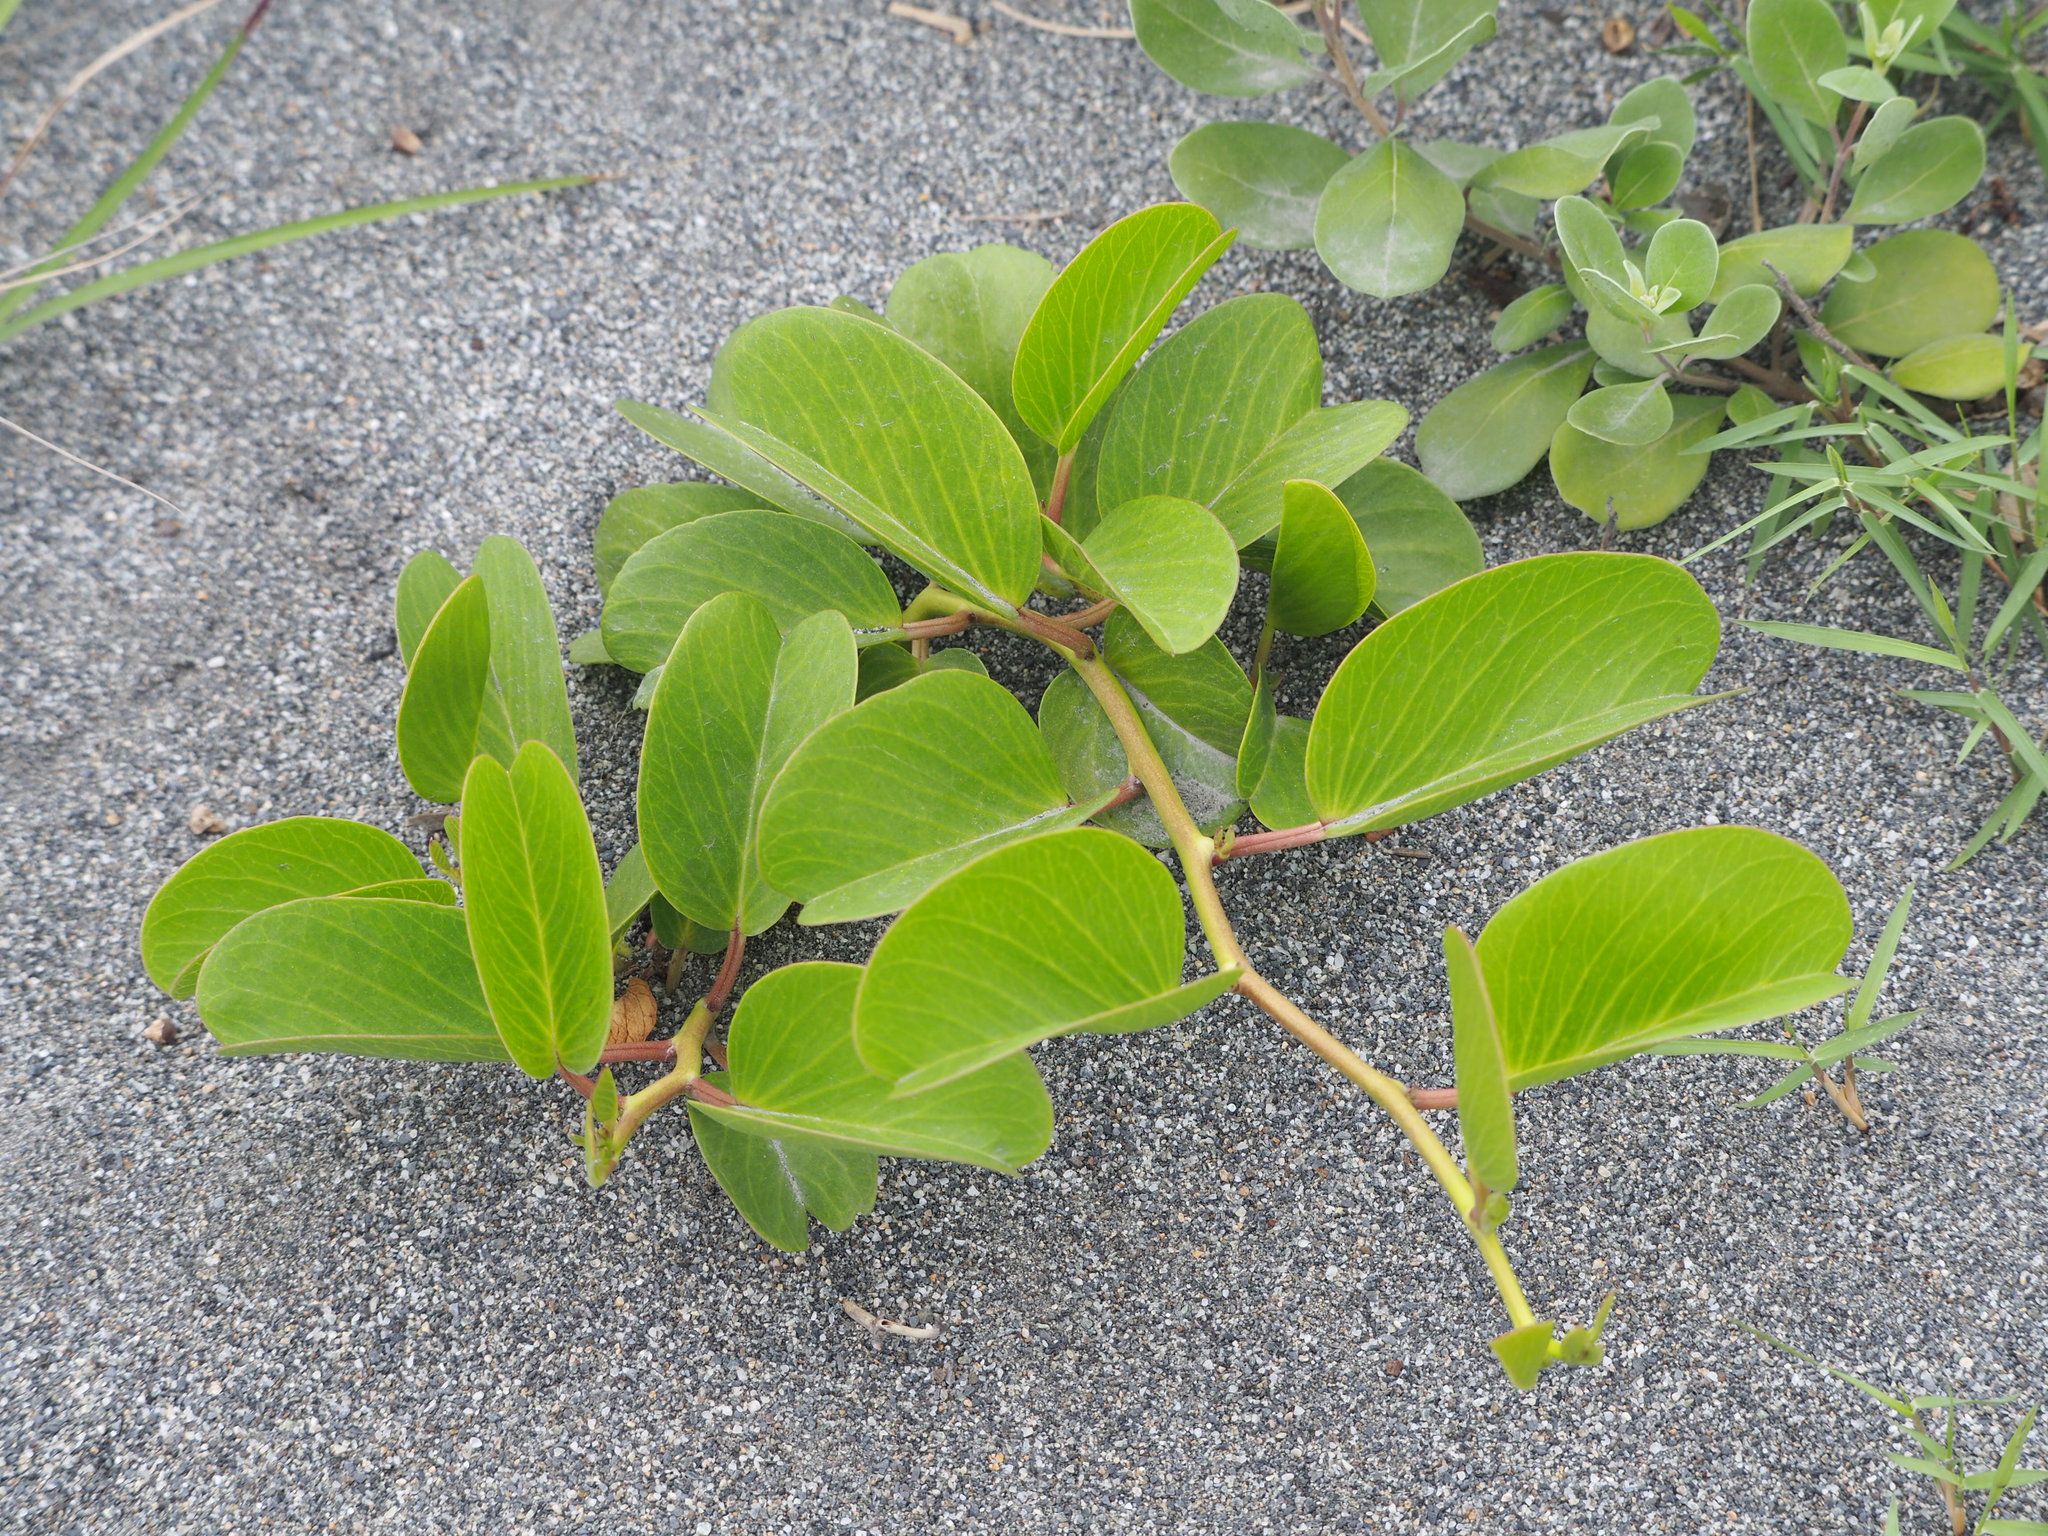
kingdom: Plantae
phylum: Tracheophyta
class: Magnoliopsida
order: Solanales
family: Convolvulaceae
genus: Ipomoea
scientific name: Ipomoea pes-caprae
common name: Beach morning glory
